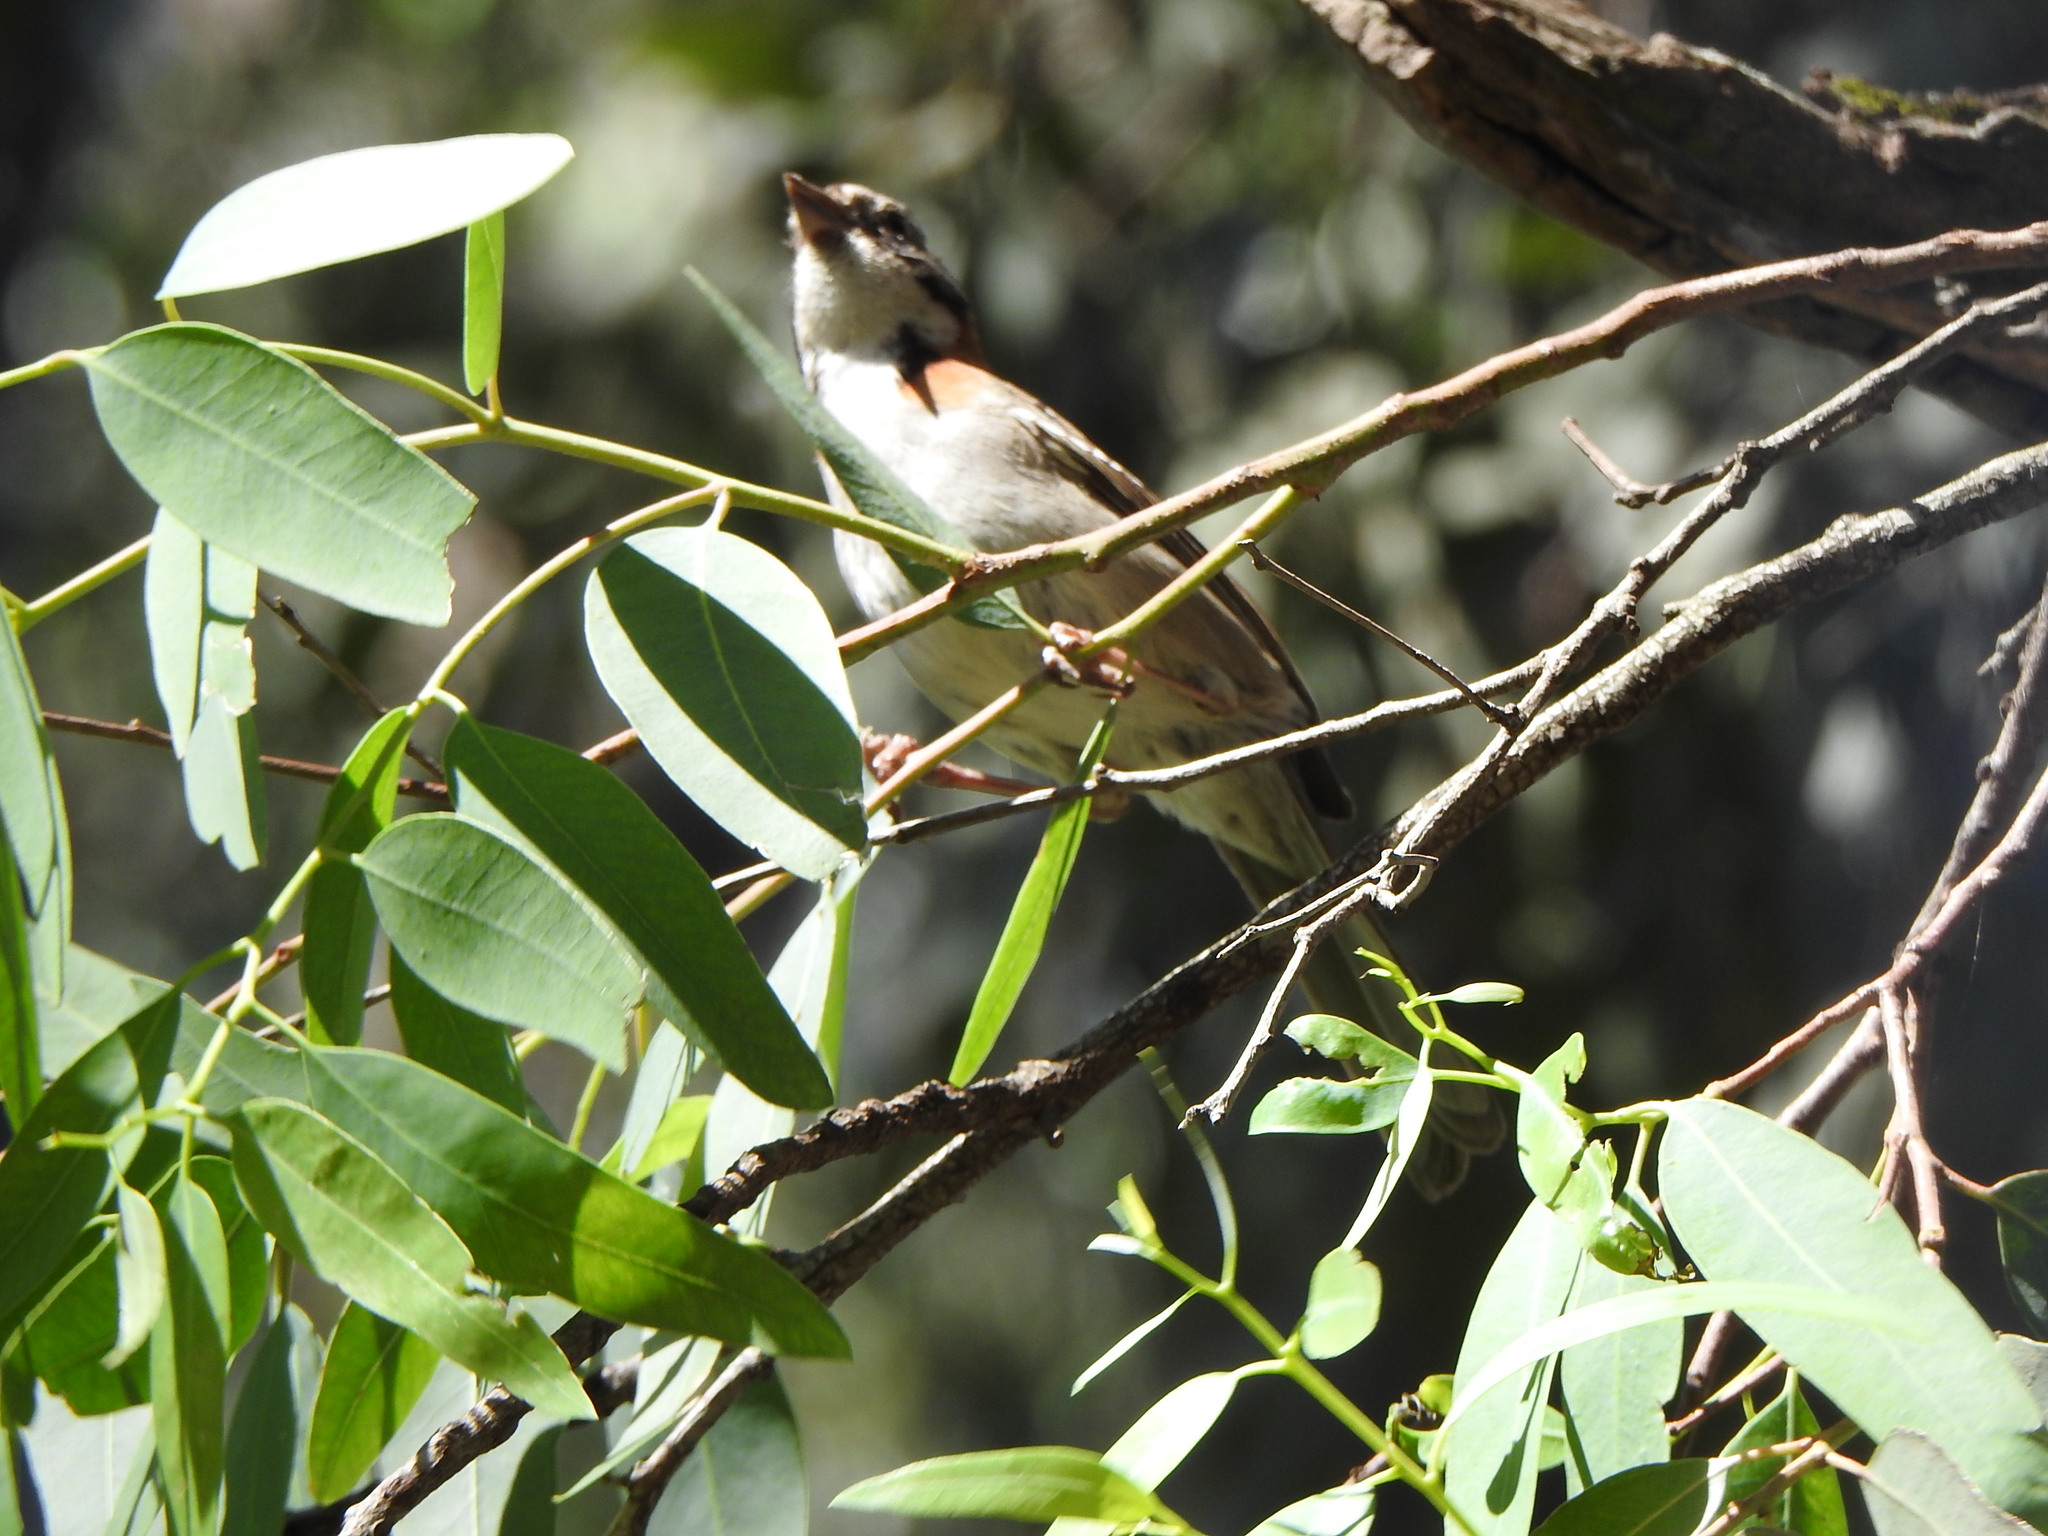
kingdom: Animalia
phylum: Chordata
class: Aves
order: Passeriformes
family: Passerellidae
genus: Zonotrichia
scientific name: Zonotrichia capensis
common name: Rufous-collared sparrow
